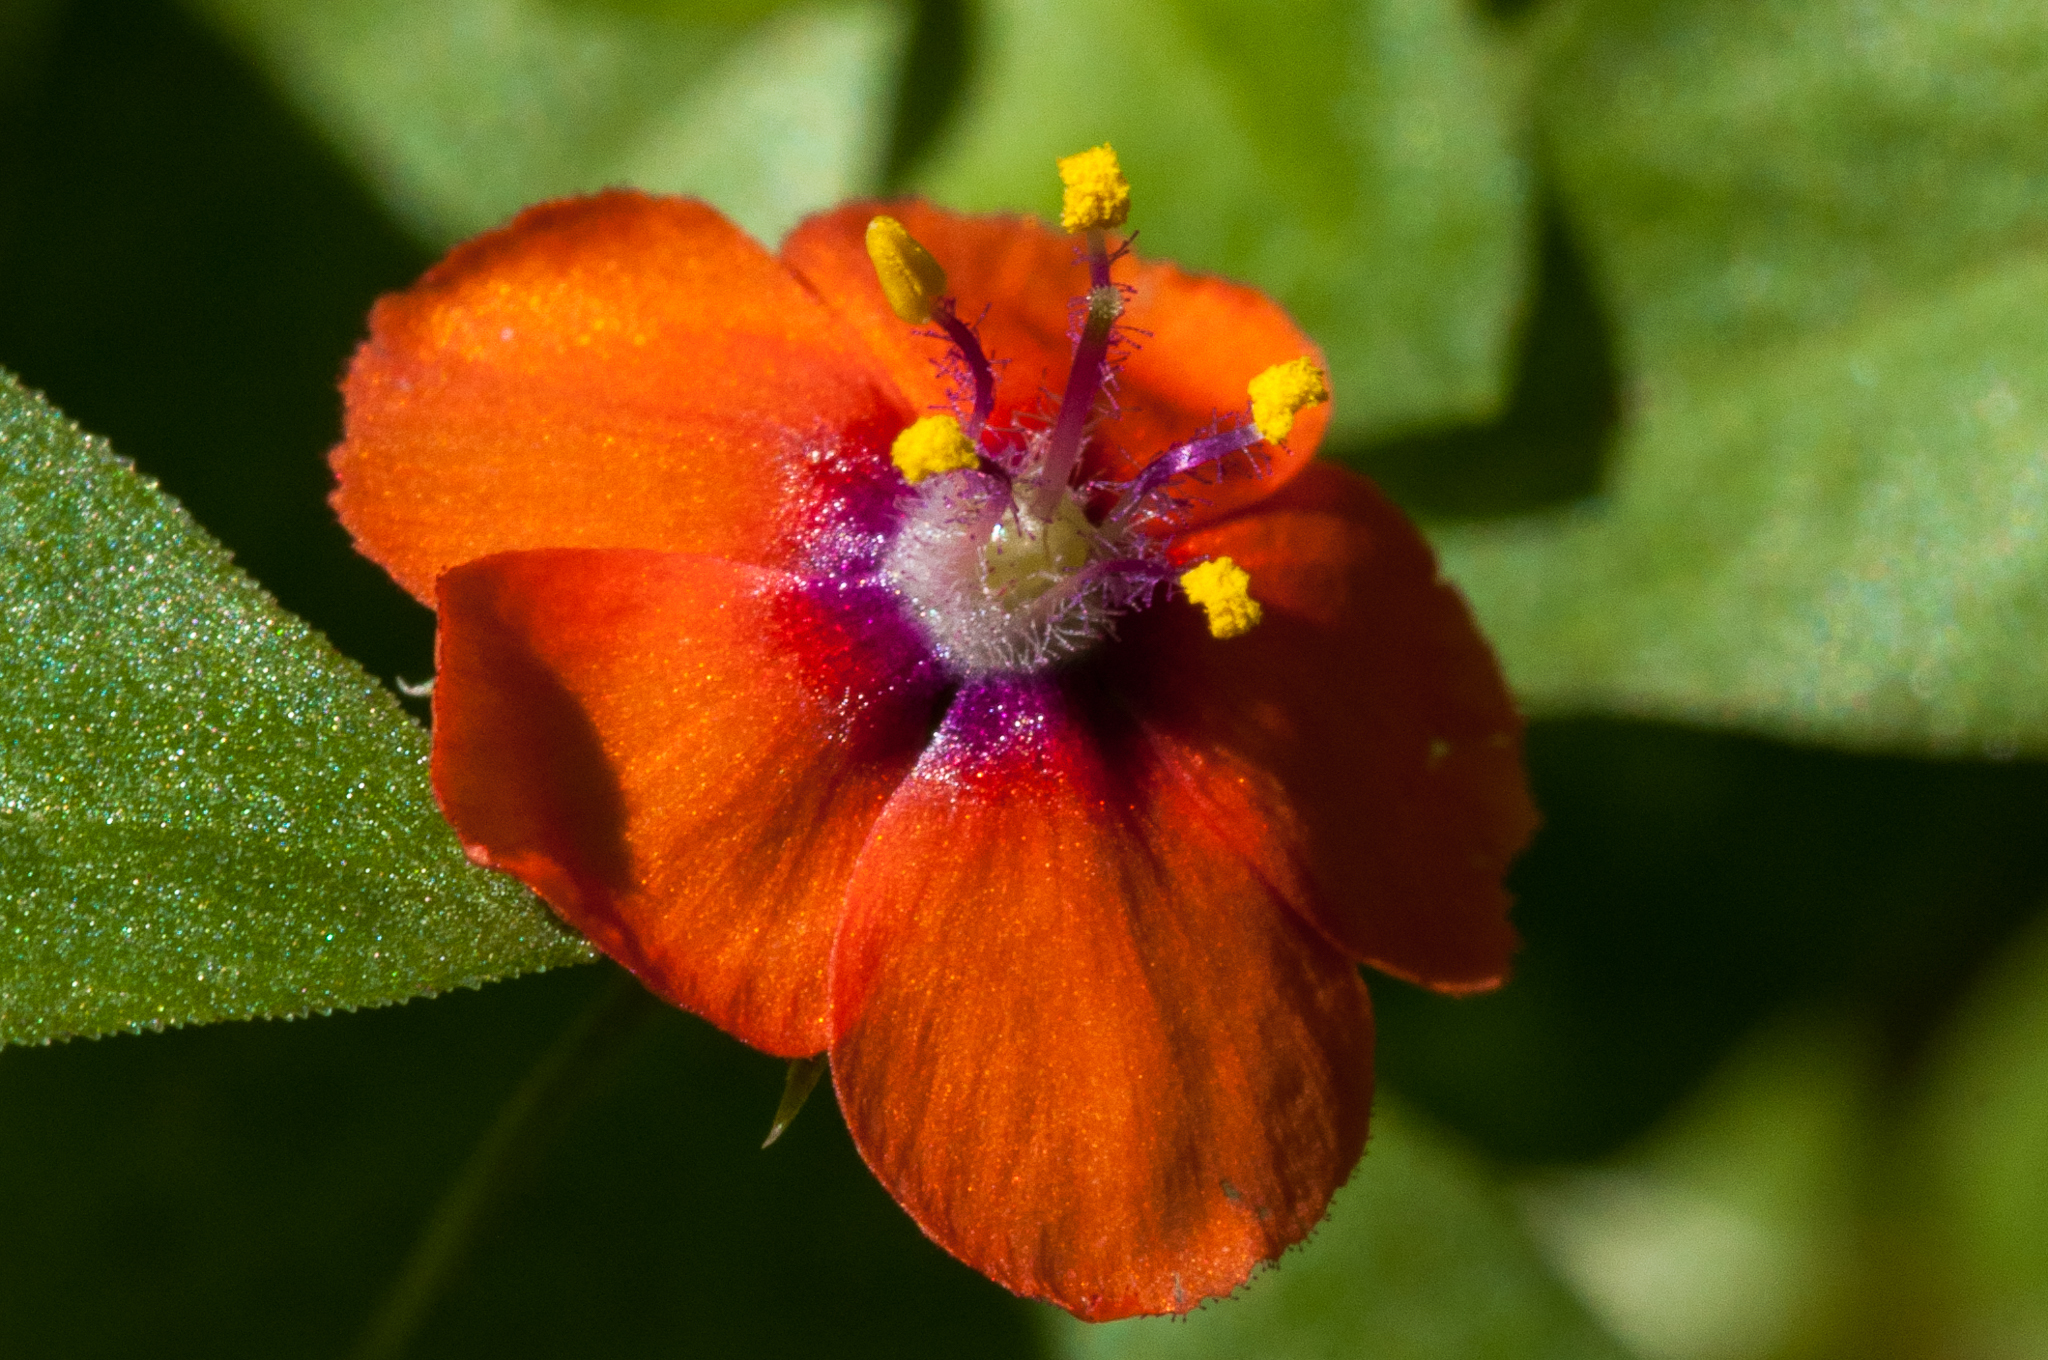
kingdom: Plantae
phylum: Tracheophyta
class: Magnoliopsida
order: Ericales
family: Primulaceae
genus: Lysimachia
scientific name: Lysimachia arvensis
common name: Scarlet pimpernel
